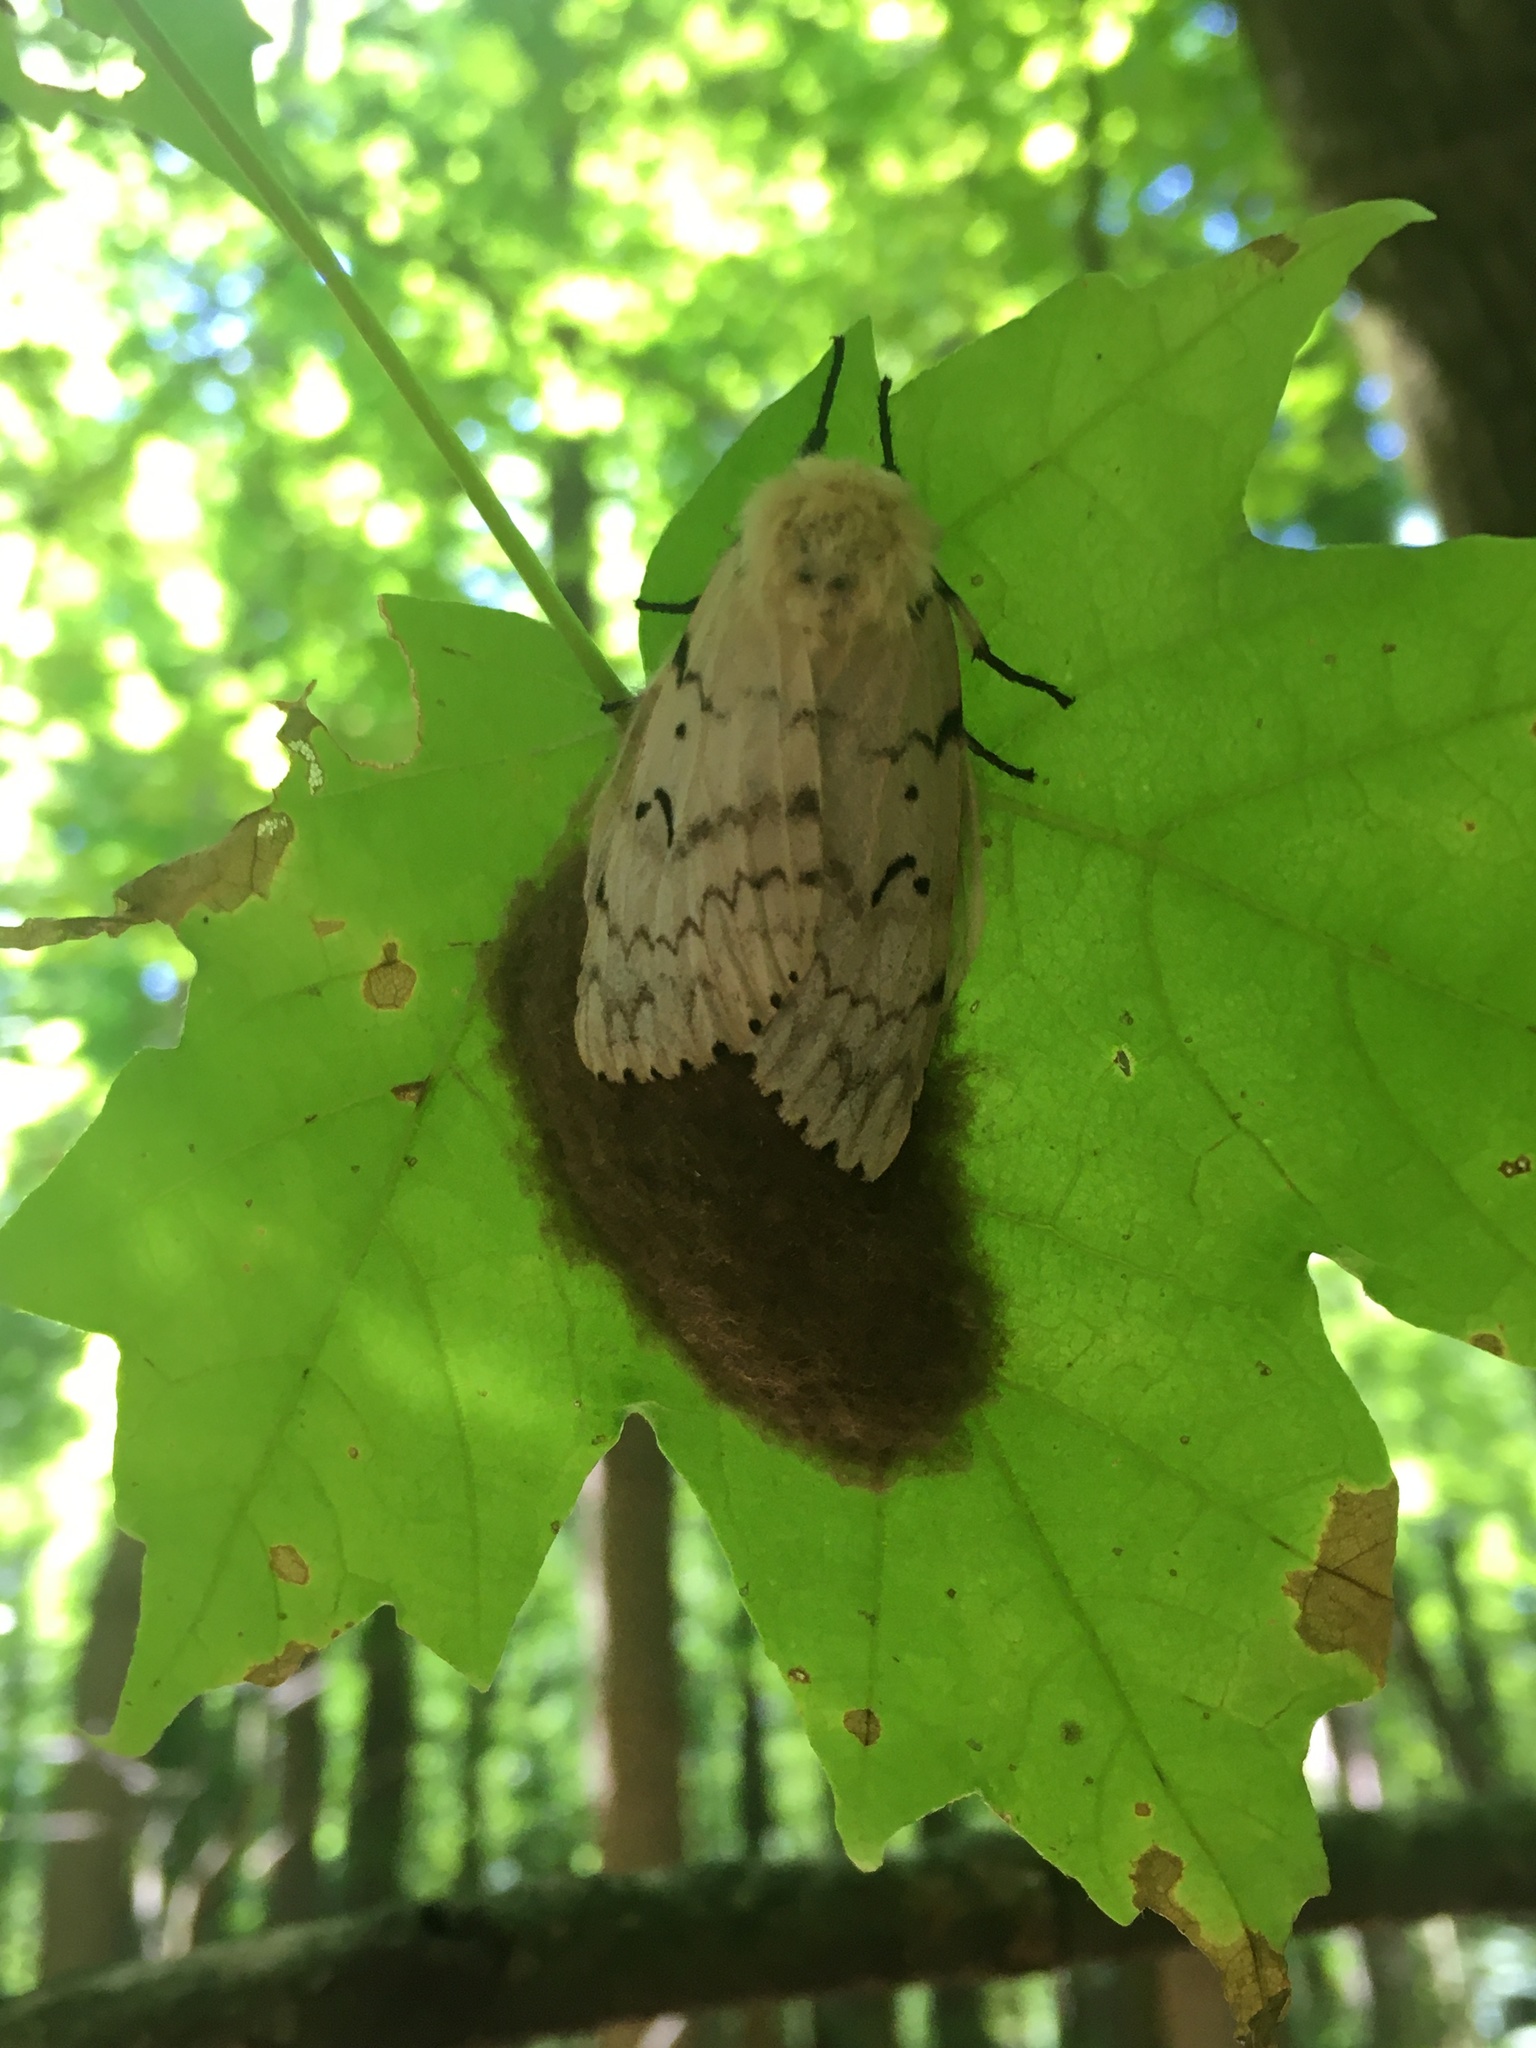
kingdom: Animalia
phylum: Arthropoda
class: Insecta
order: Lepidoptera
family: Erebidae
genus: Lymantria
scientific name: Lymantria dispar
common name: Gypsy moth
